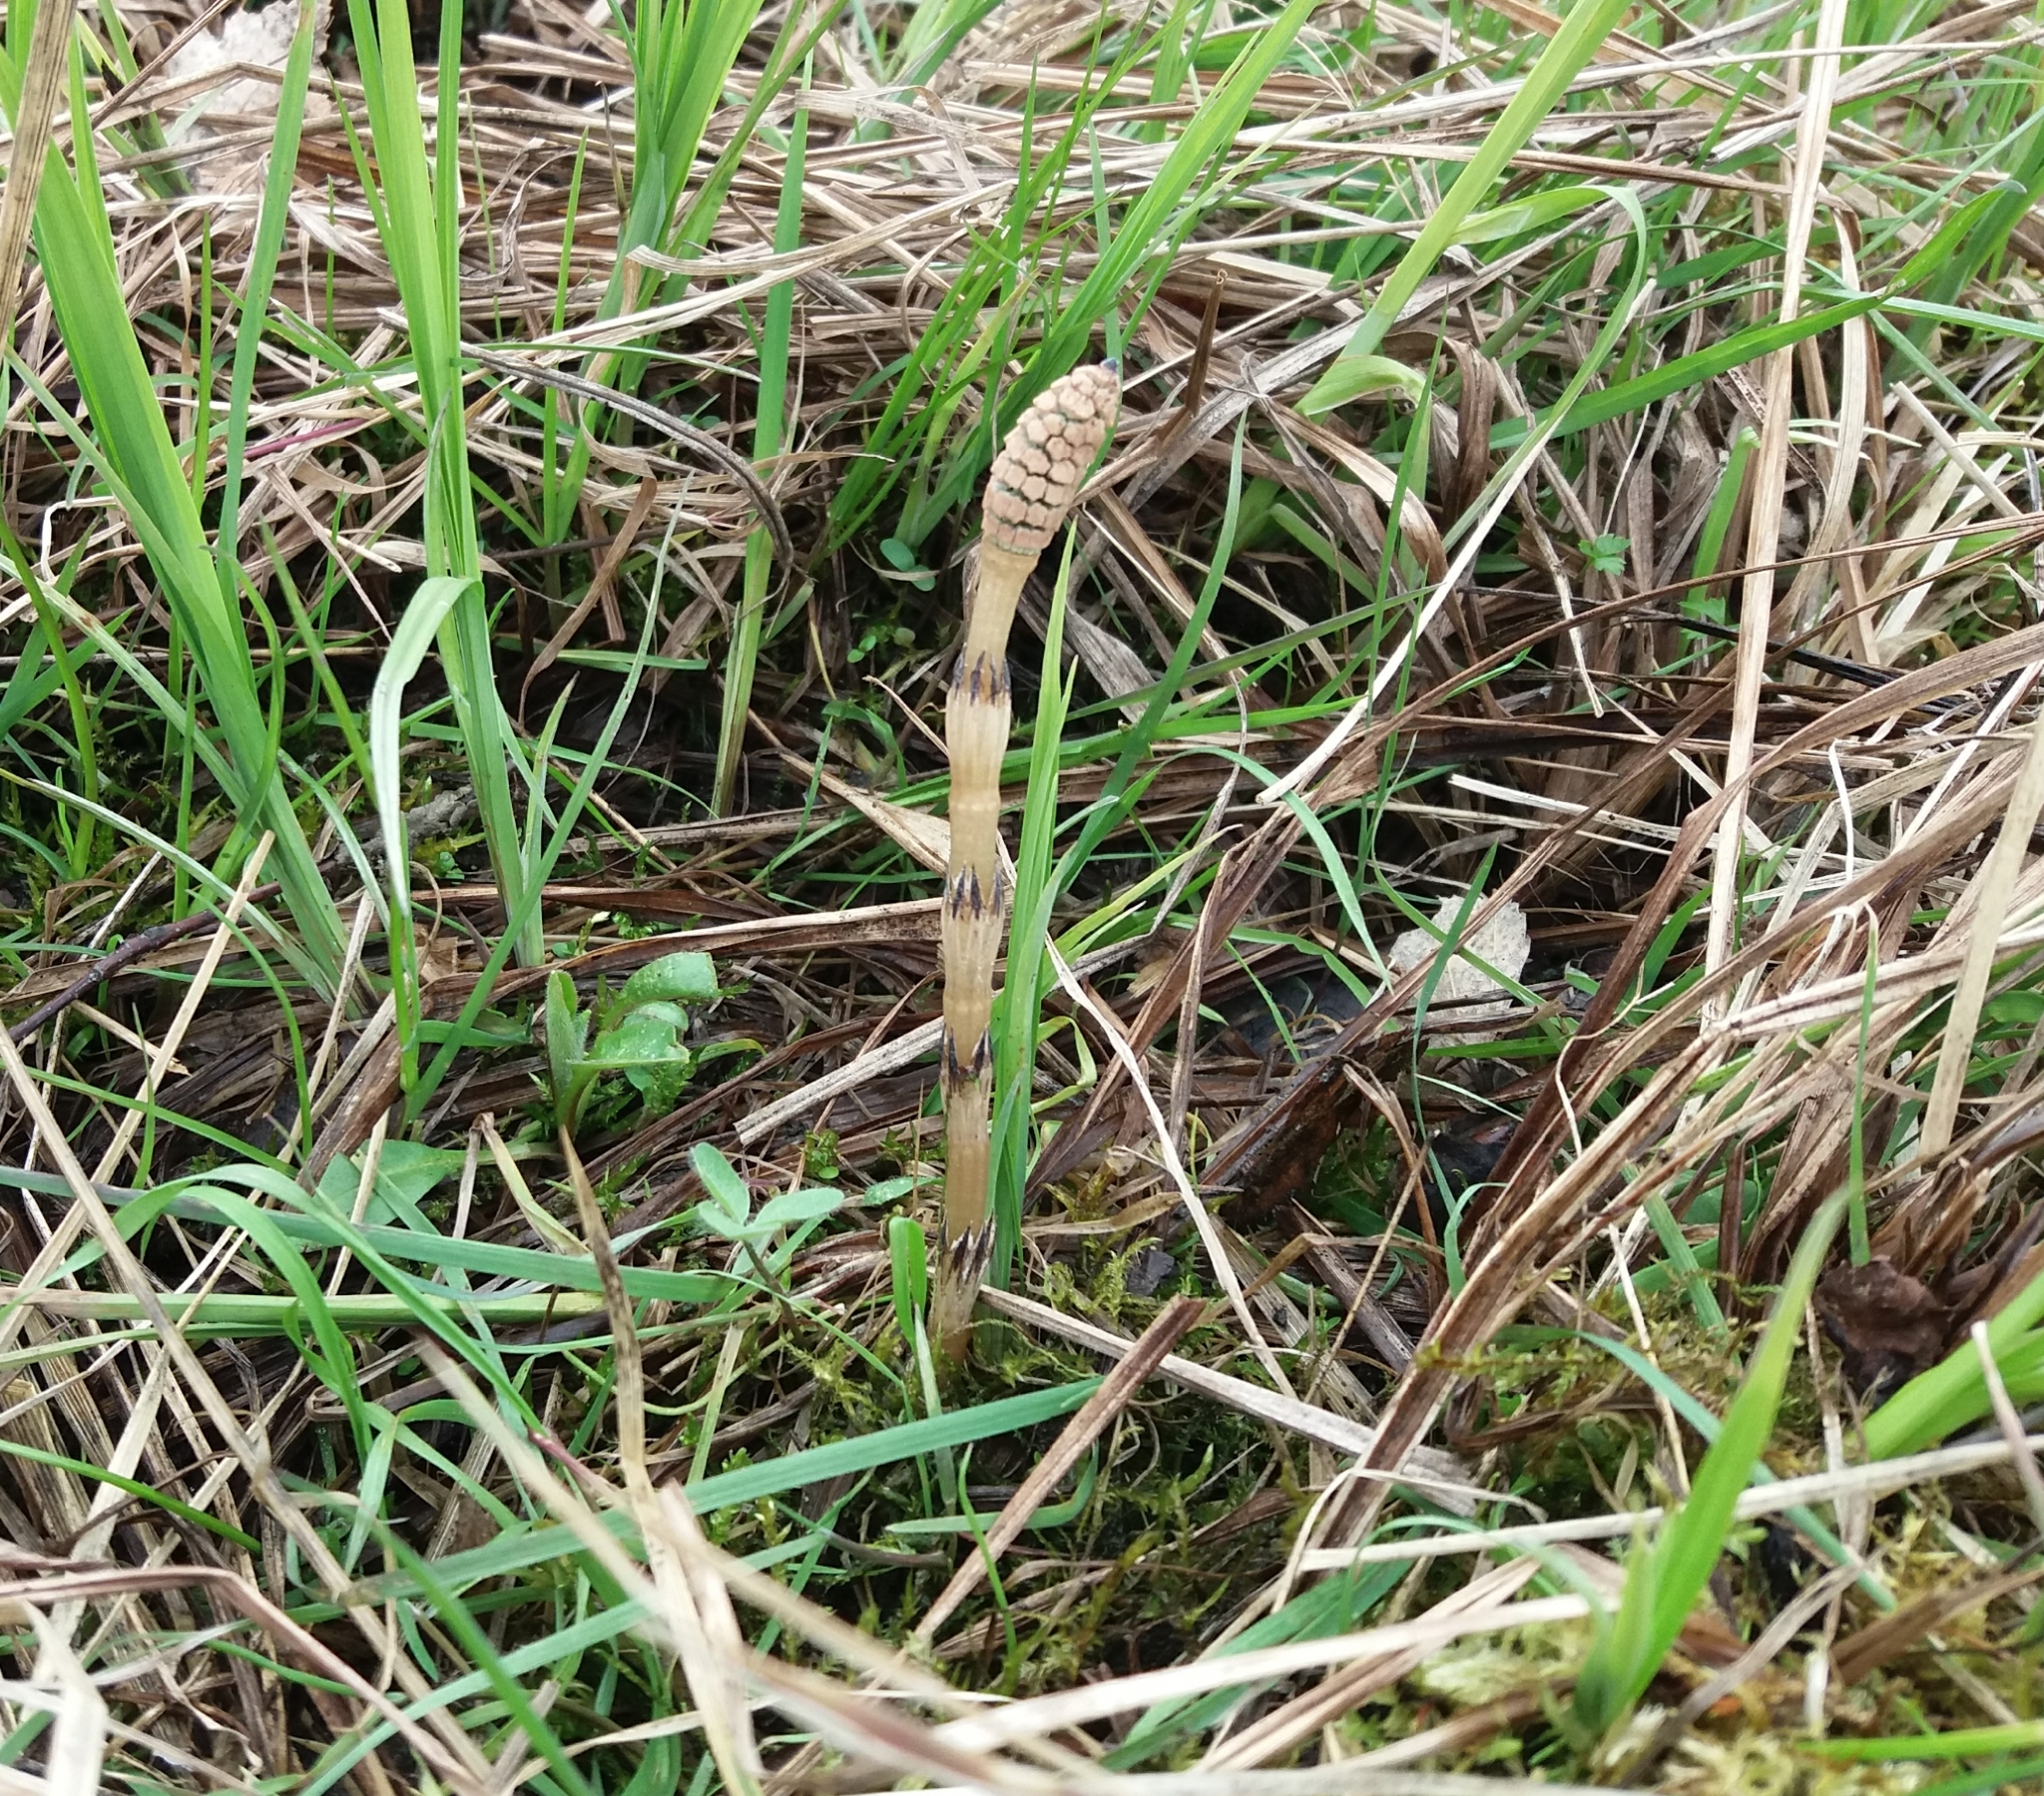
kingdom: Plantae
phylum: Tracheophyta
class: Polypodiopsida
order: Equisetales
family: Equisetaceae
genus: Equisetum
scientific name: Equisetum arvense
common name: Field horsetail
